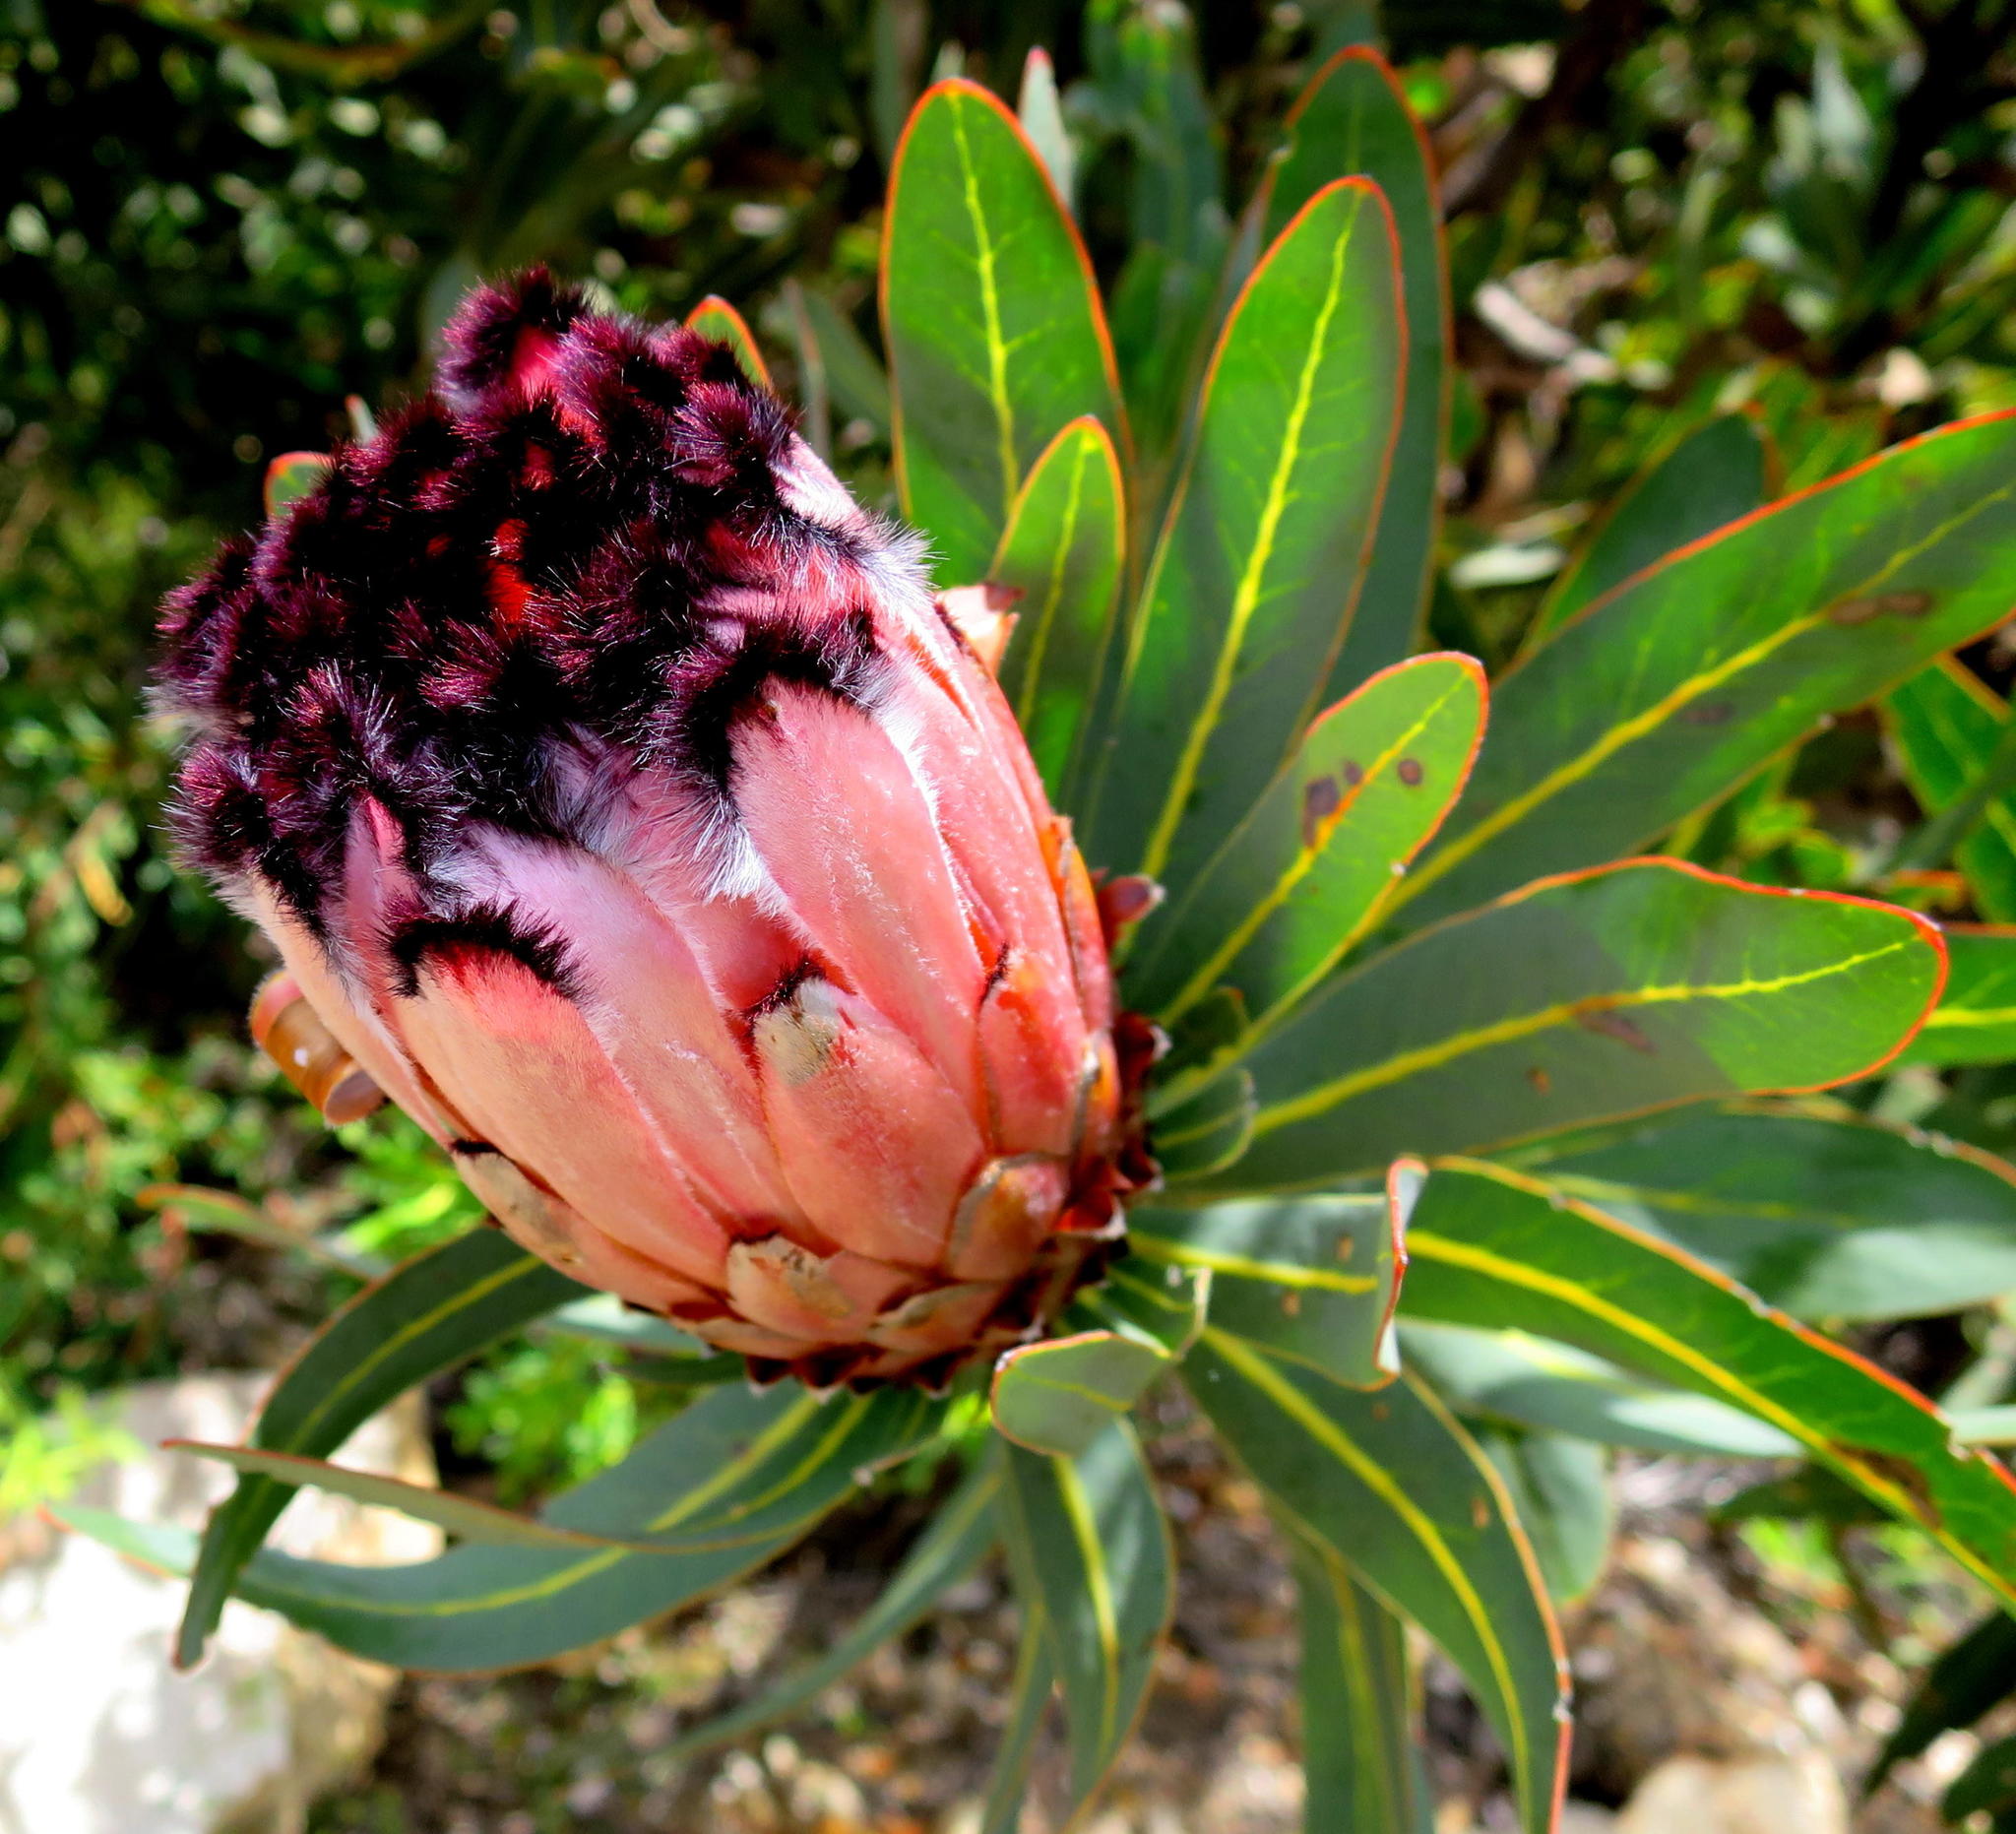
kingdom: Plantae
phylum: Tracheophyta
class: Magnoliopsida
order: Proteales
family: Proteaceae
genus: Protea
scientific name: Protea neriifolia
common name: Blue sugarbush
